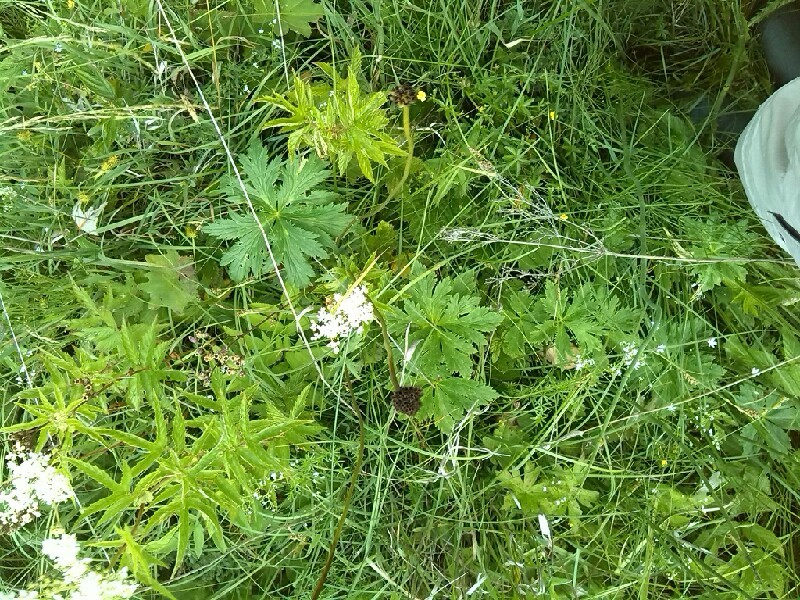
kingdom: Plantae
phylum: Tracheophyta
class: Magnoliopsida
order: Ranunculales
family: Ranunculaceae
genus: Trollius
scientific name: Trollius europaeus
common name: European globeflower
